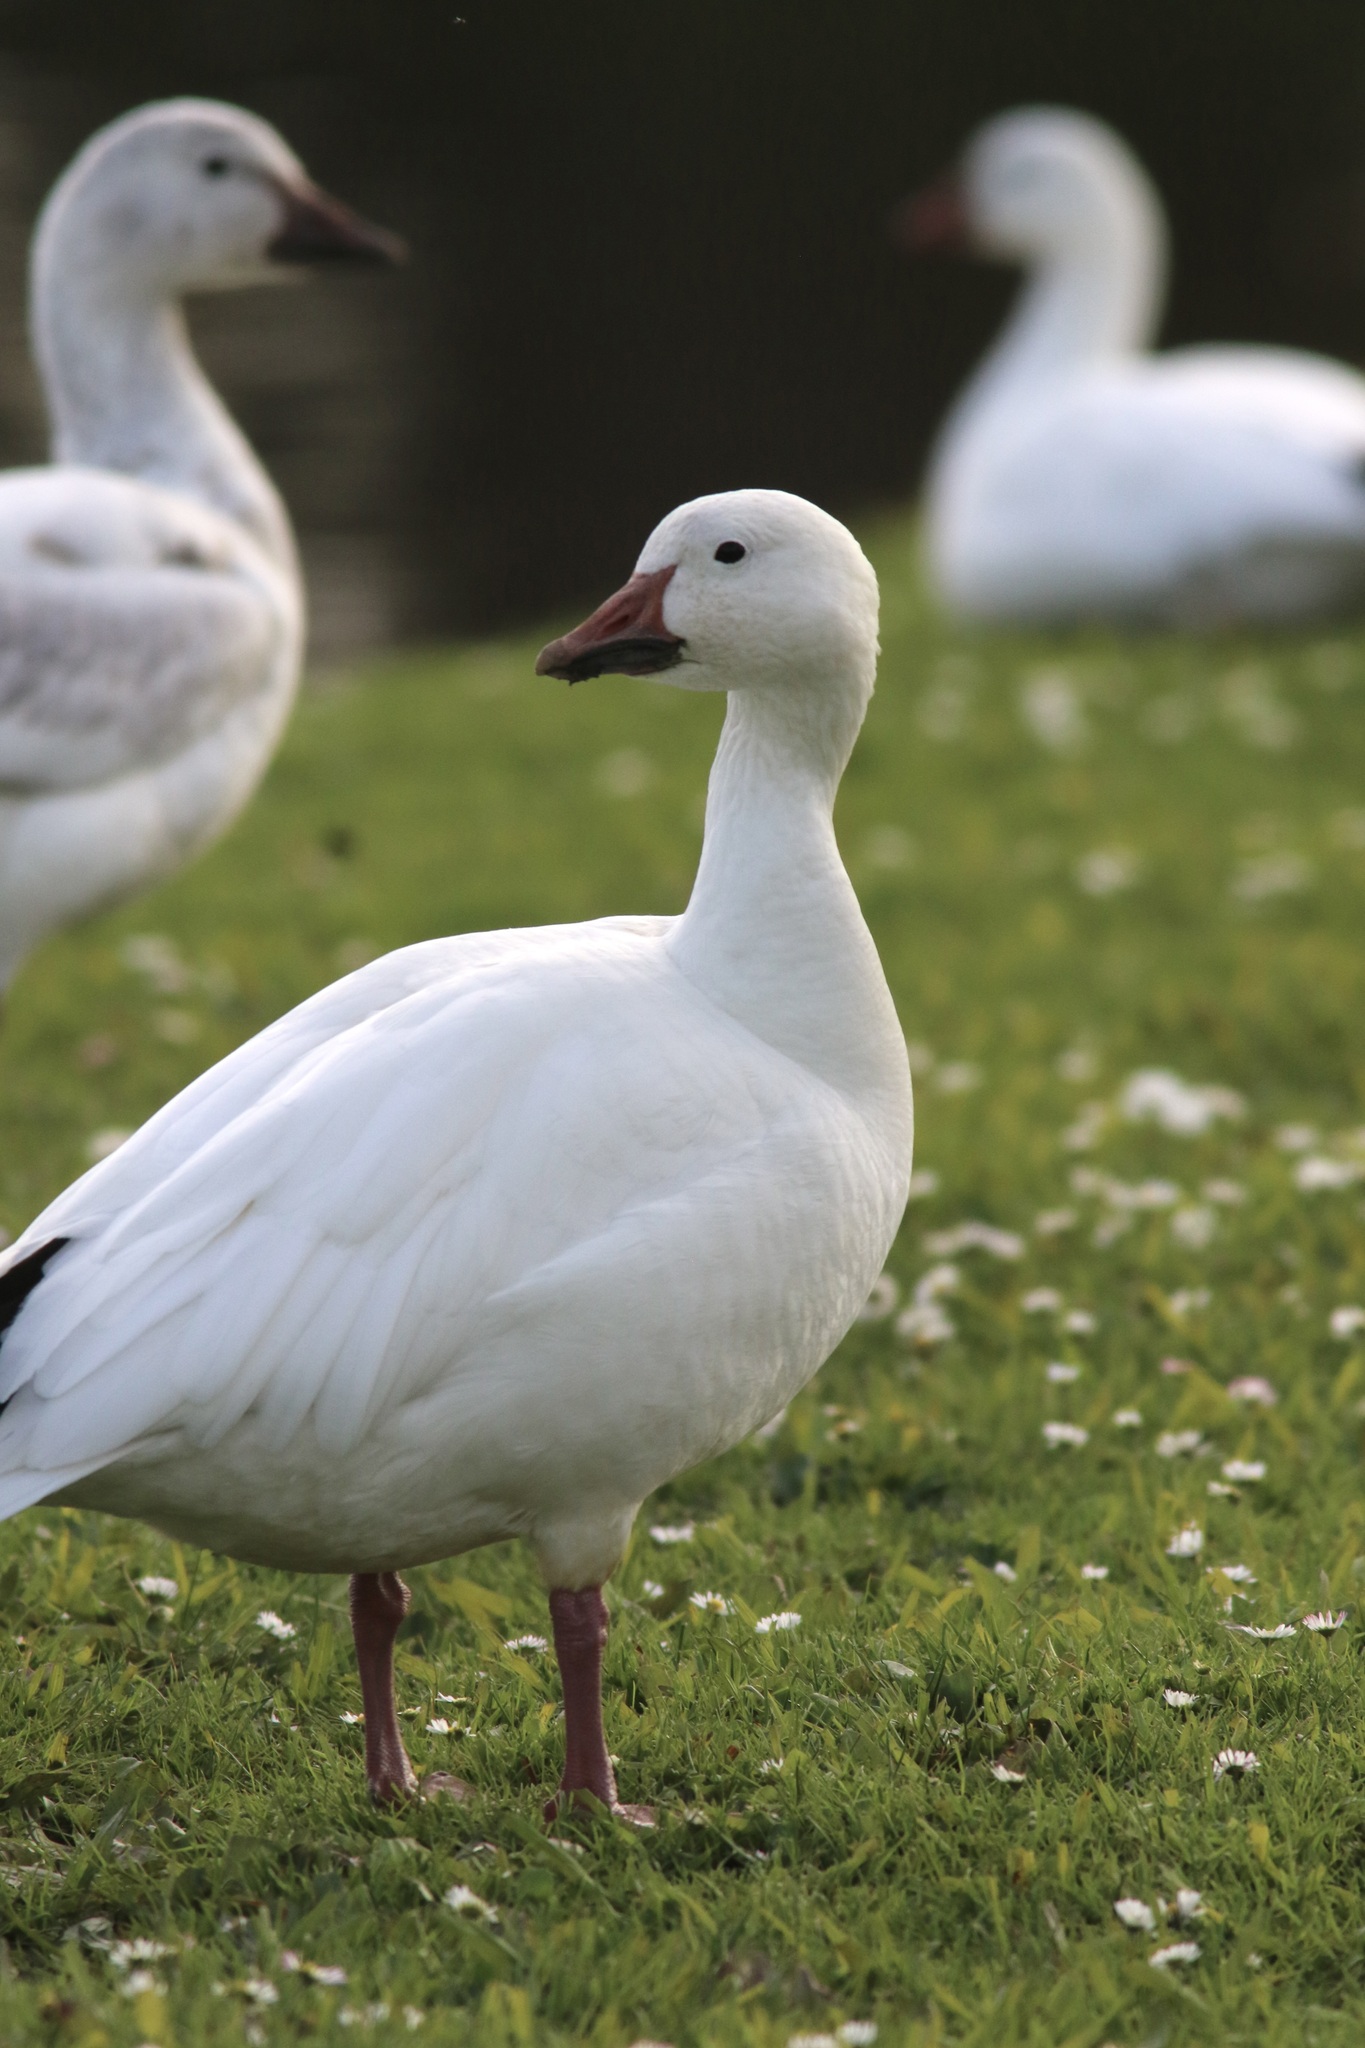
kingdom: Animalia
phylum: Chordata
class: Aves
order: Anseriformes
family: Anatidae
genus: Anser
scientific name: Anser caerulescens
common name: Snow goose
